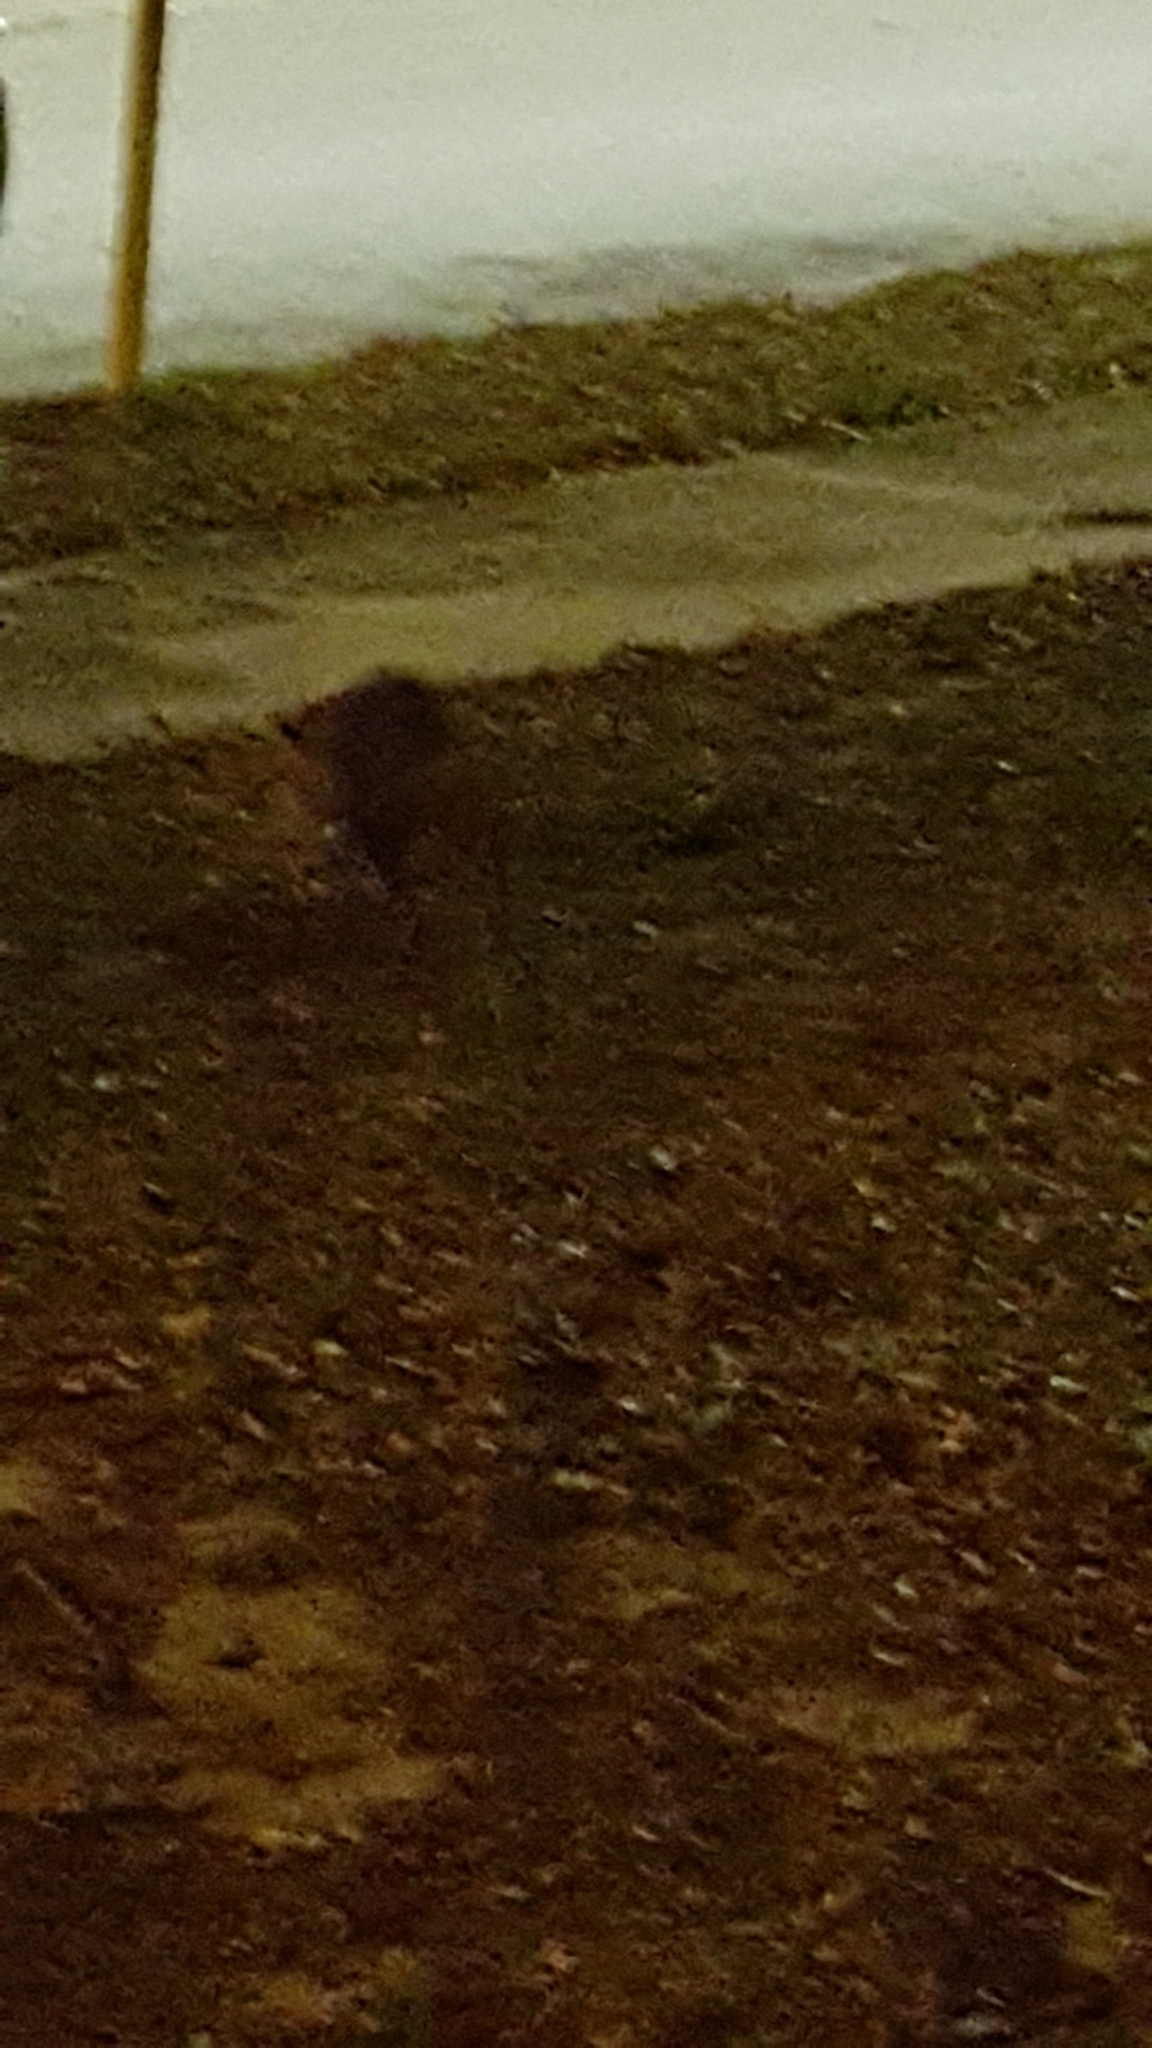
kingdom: Animalia
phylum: Chordata
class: Mammalia
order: Didelphimorphia
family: Didelphidae
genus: Didelphis
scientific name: Didelphis virginiana
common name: Virginia opossum
